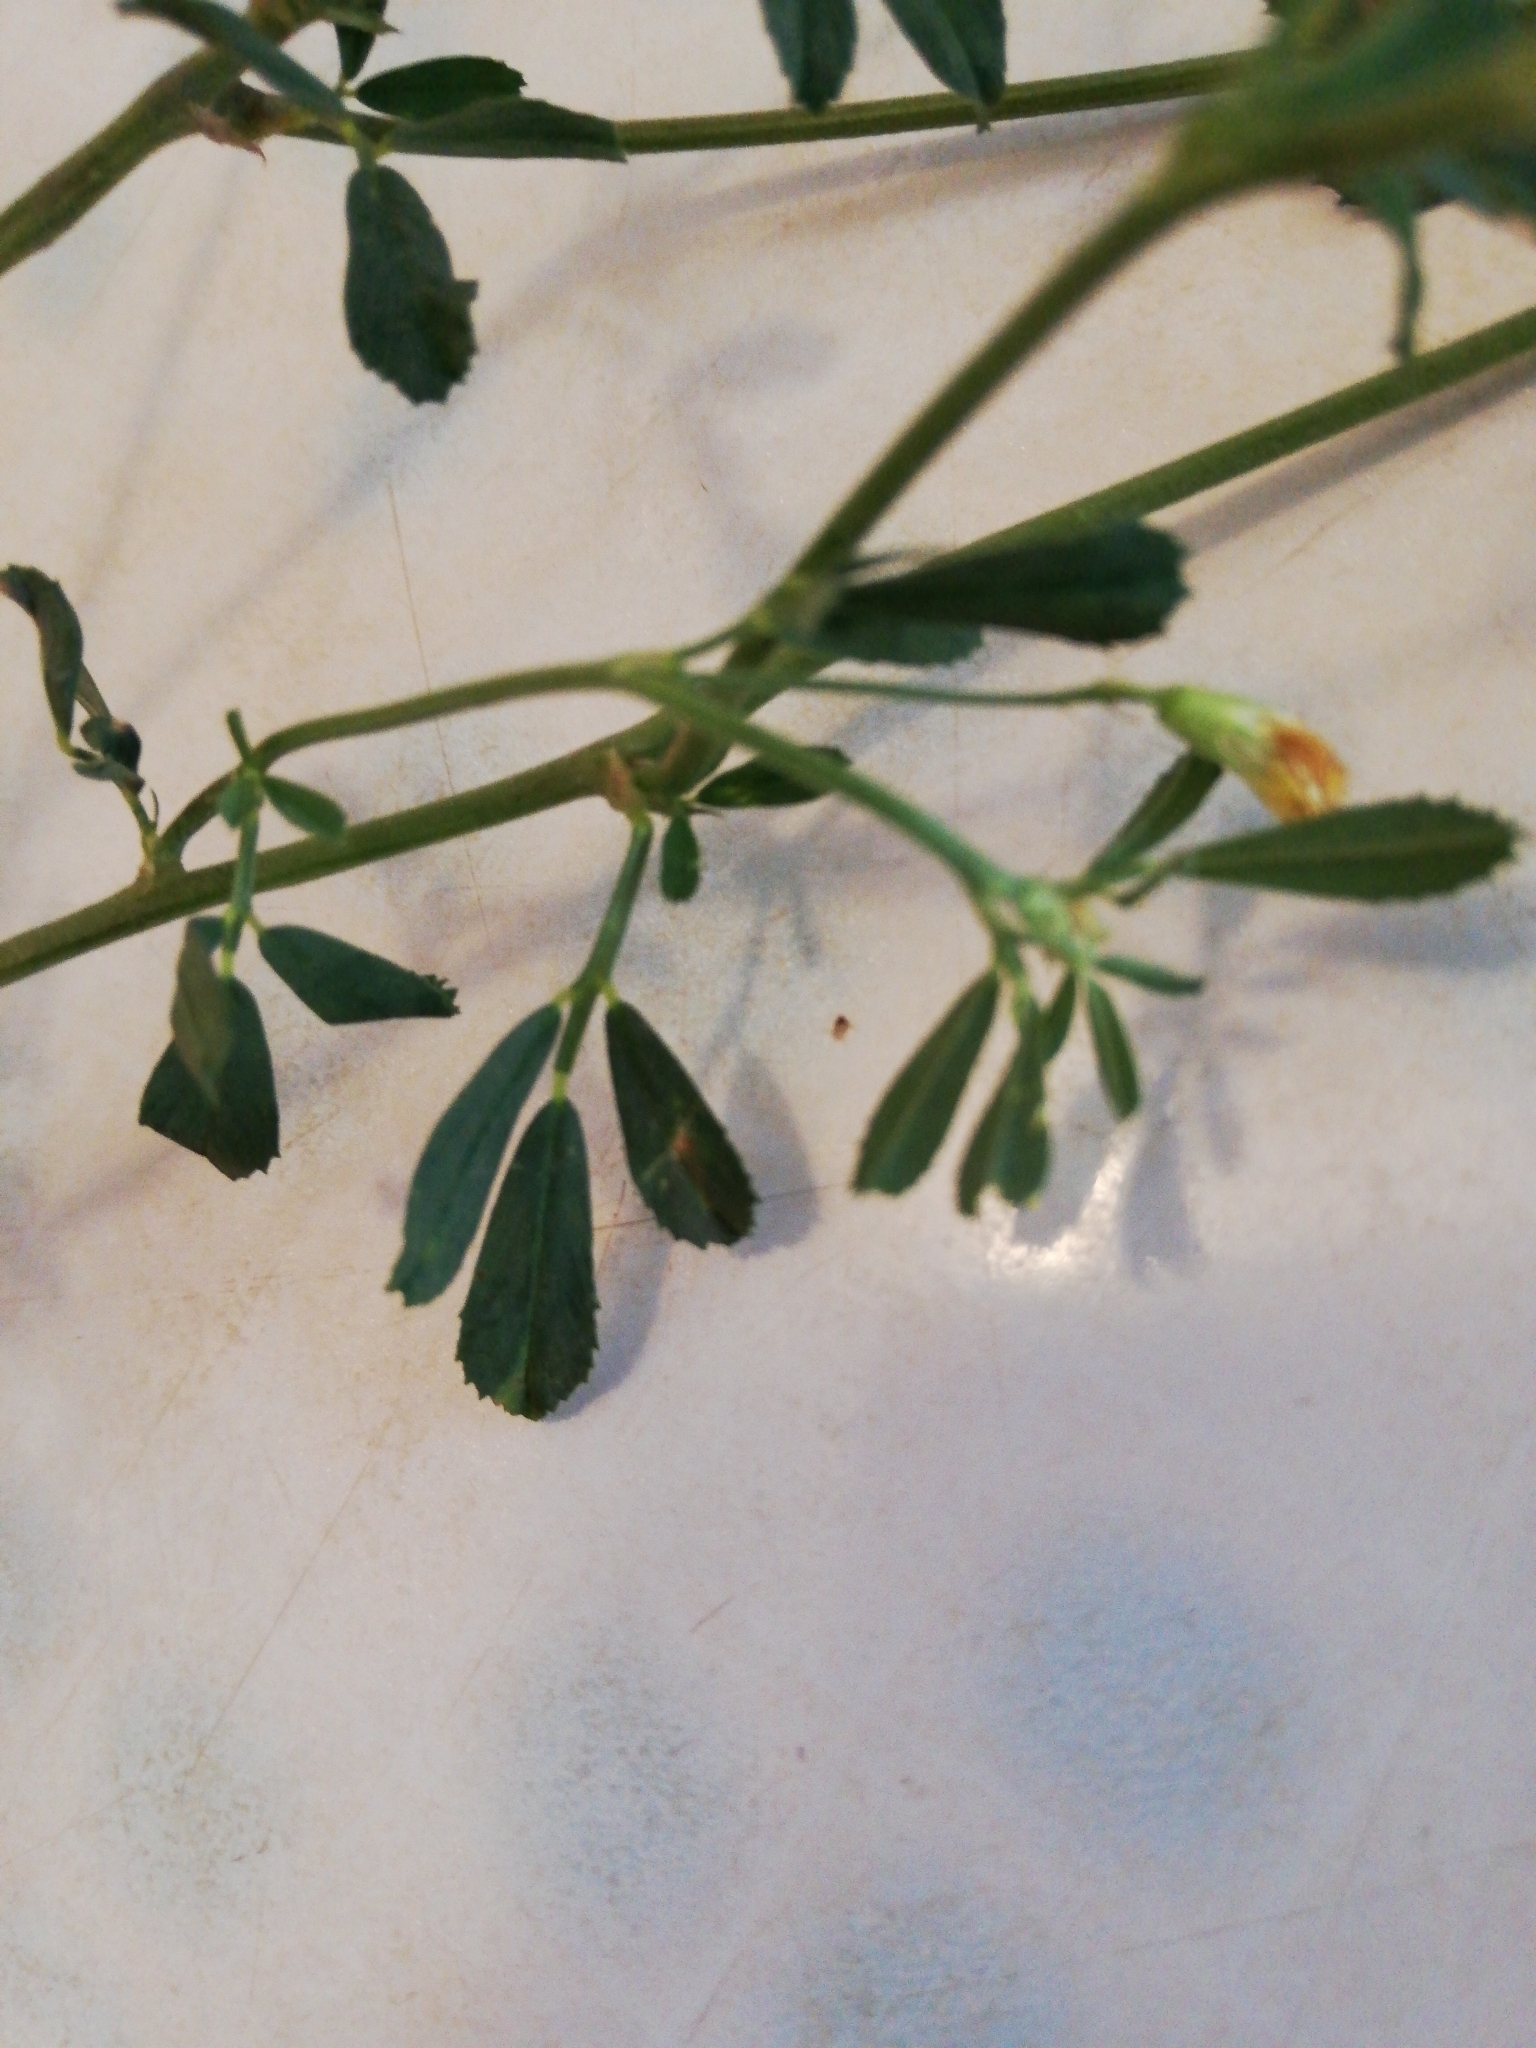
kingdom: Plantae
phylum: Tracheophyta
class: Magnoliopsida
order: Fabales
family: Fabaceae
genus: Medicago
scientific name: Medicago falcata
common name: Sickle medick
